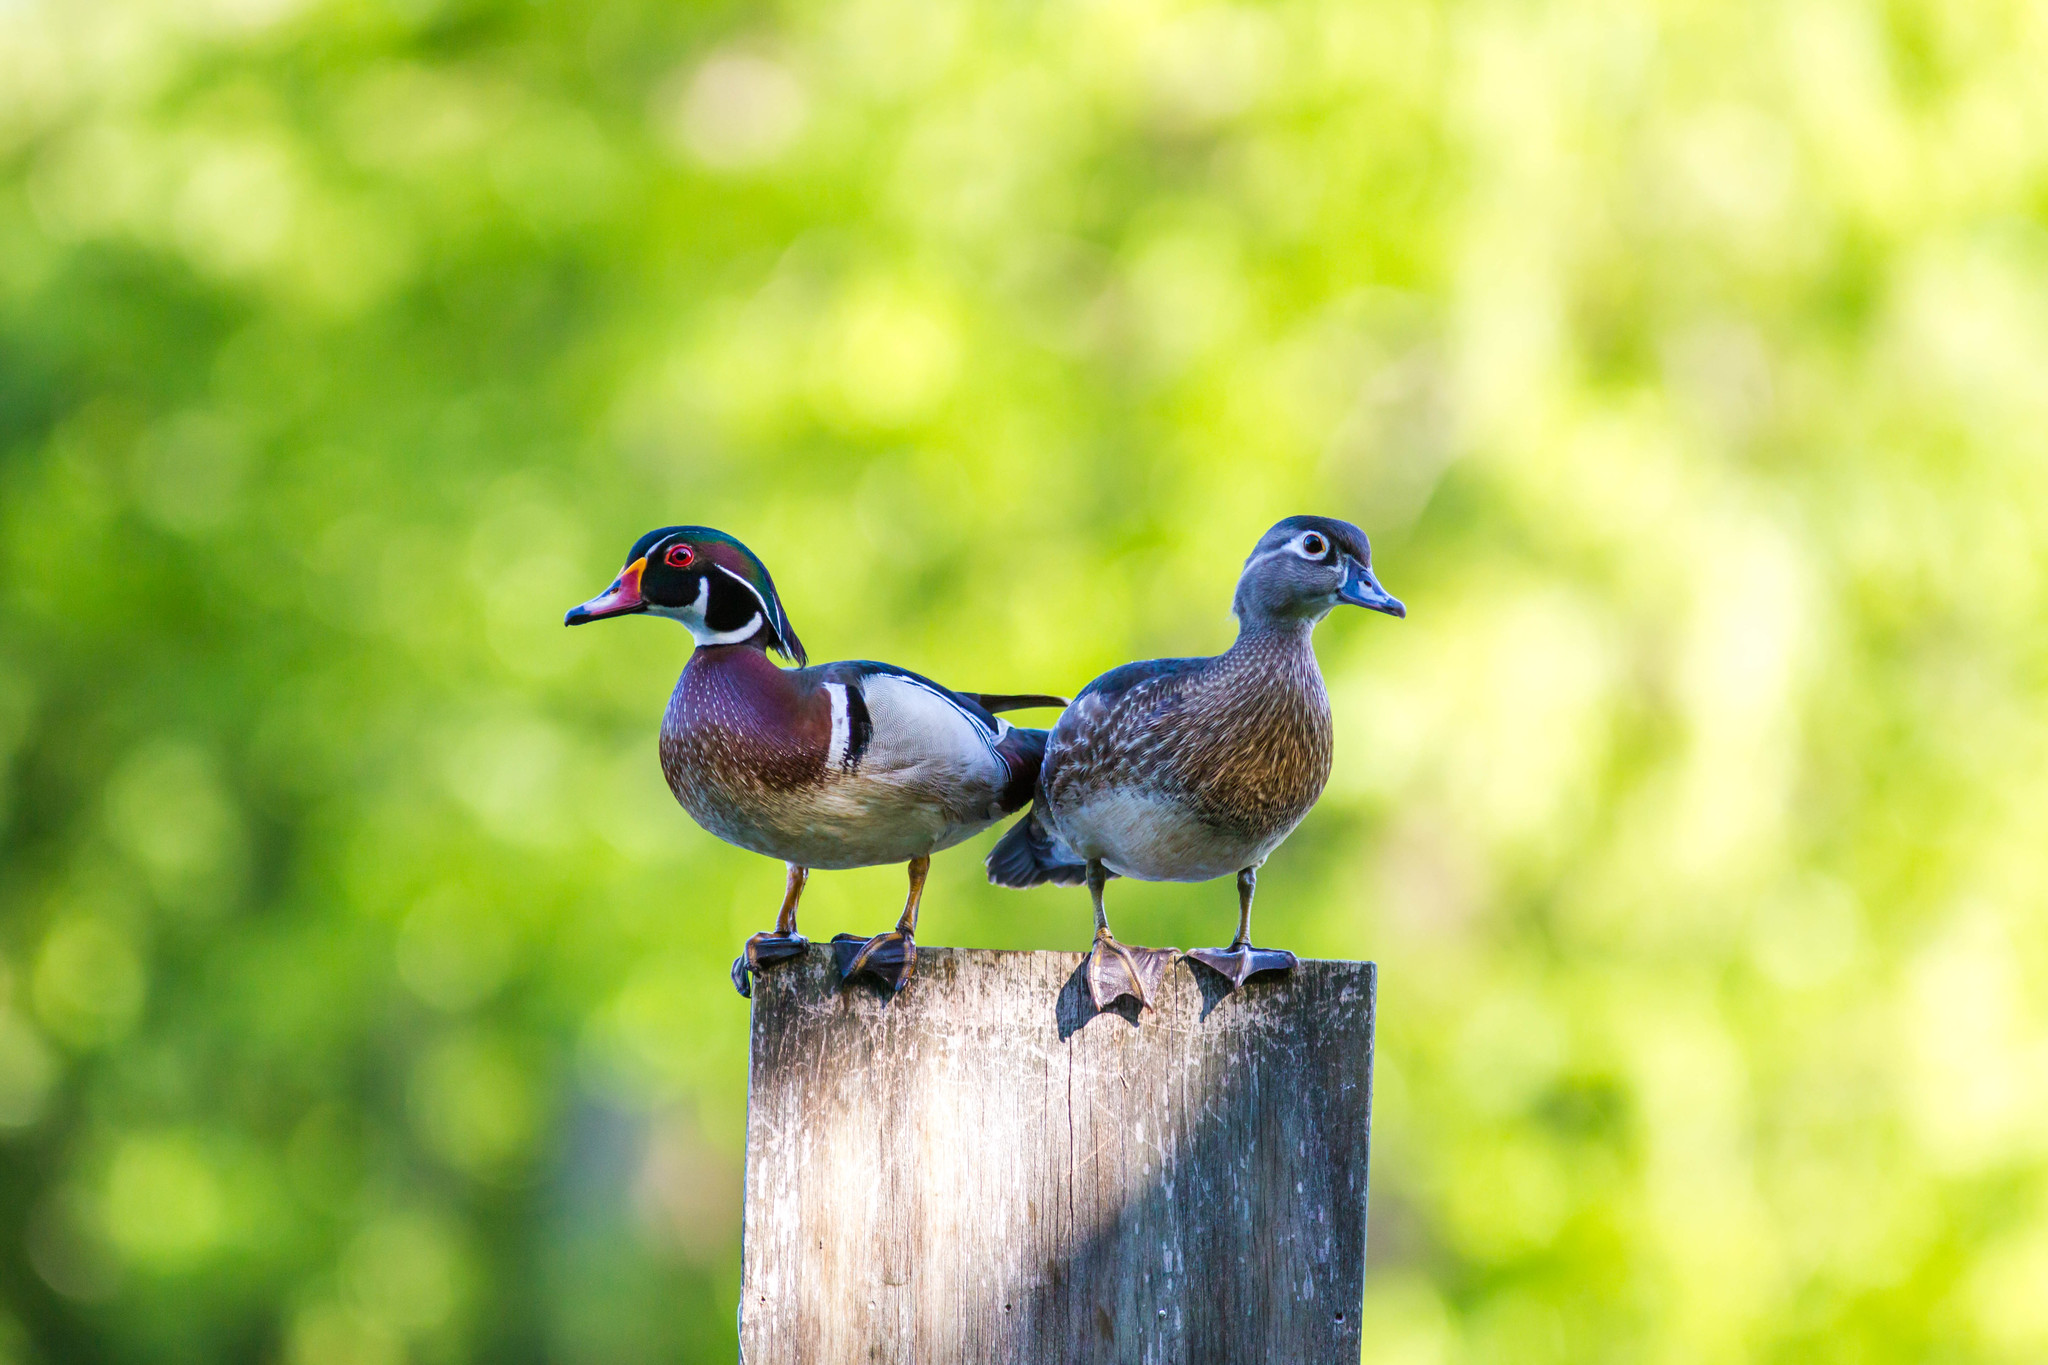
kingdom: Animalia
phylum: Chordata
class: Aves
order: Anseriformes
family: Anatidae
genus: Aix
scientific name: Aix sponsa
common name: Wood duck
